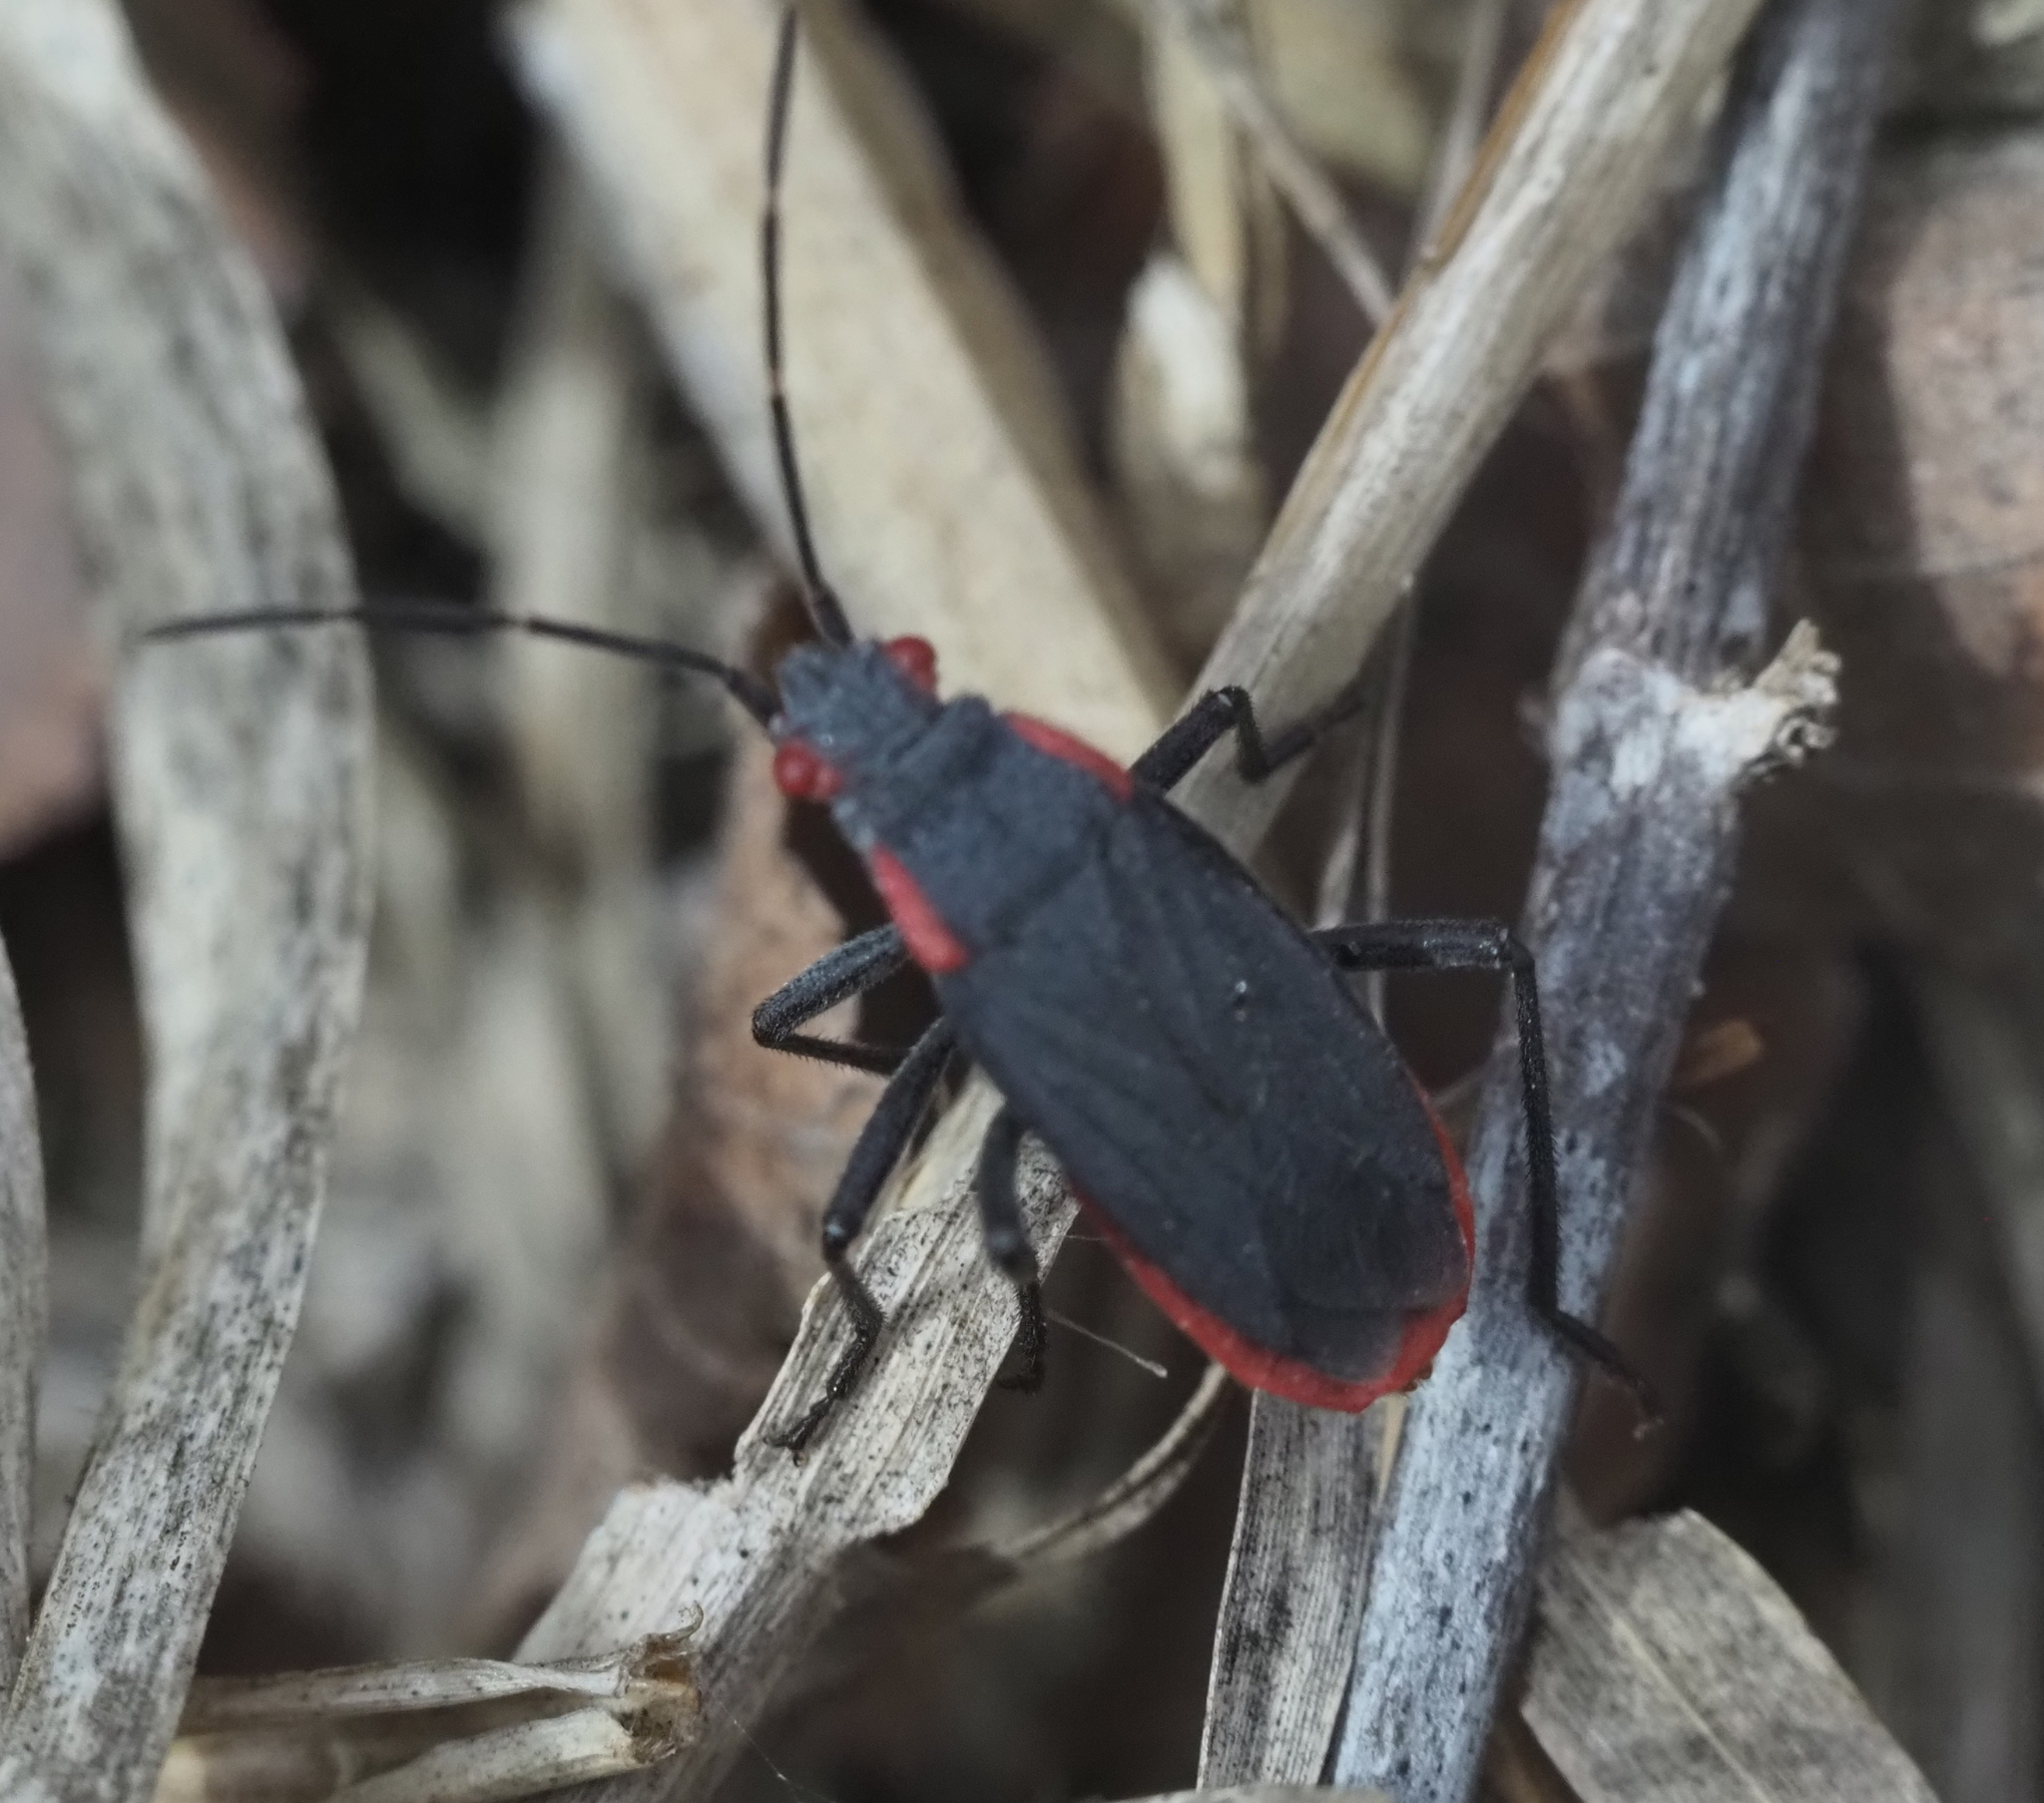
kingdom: Animalia
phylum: Arthropoda
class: Insecta
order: Hemiptera
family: Rhopalidae
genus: Jadera
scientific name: Jadera haematoloma
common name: Red-shouldered bug
